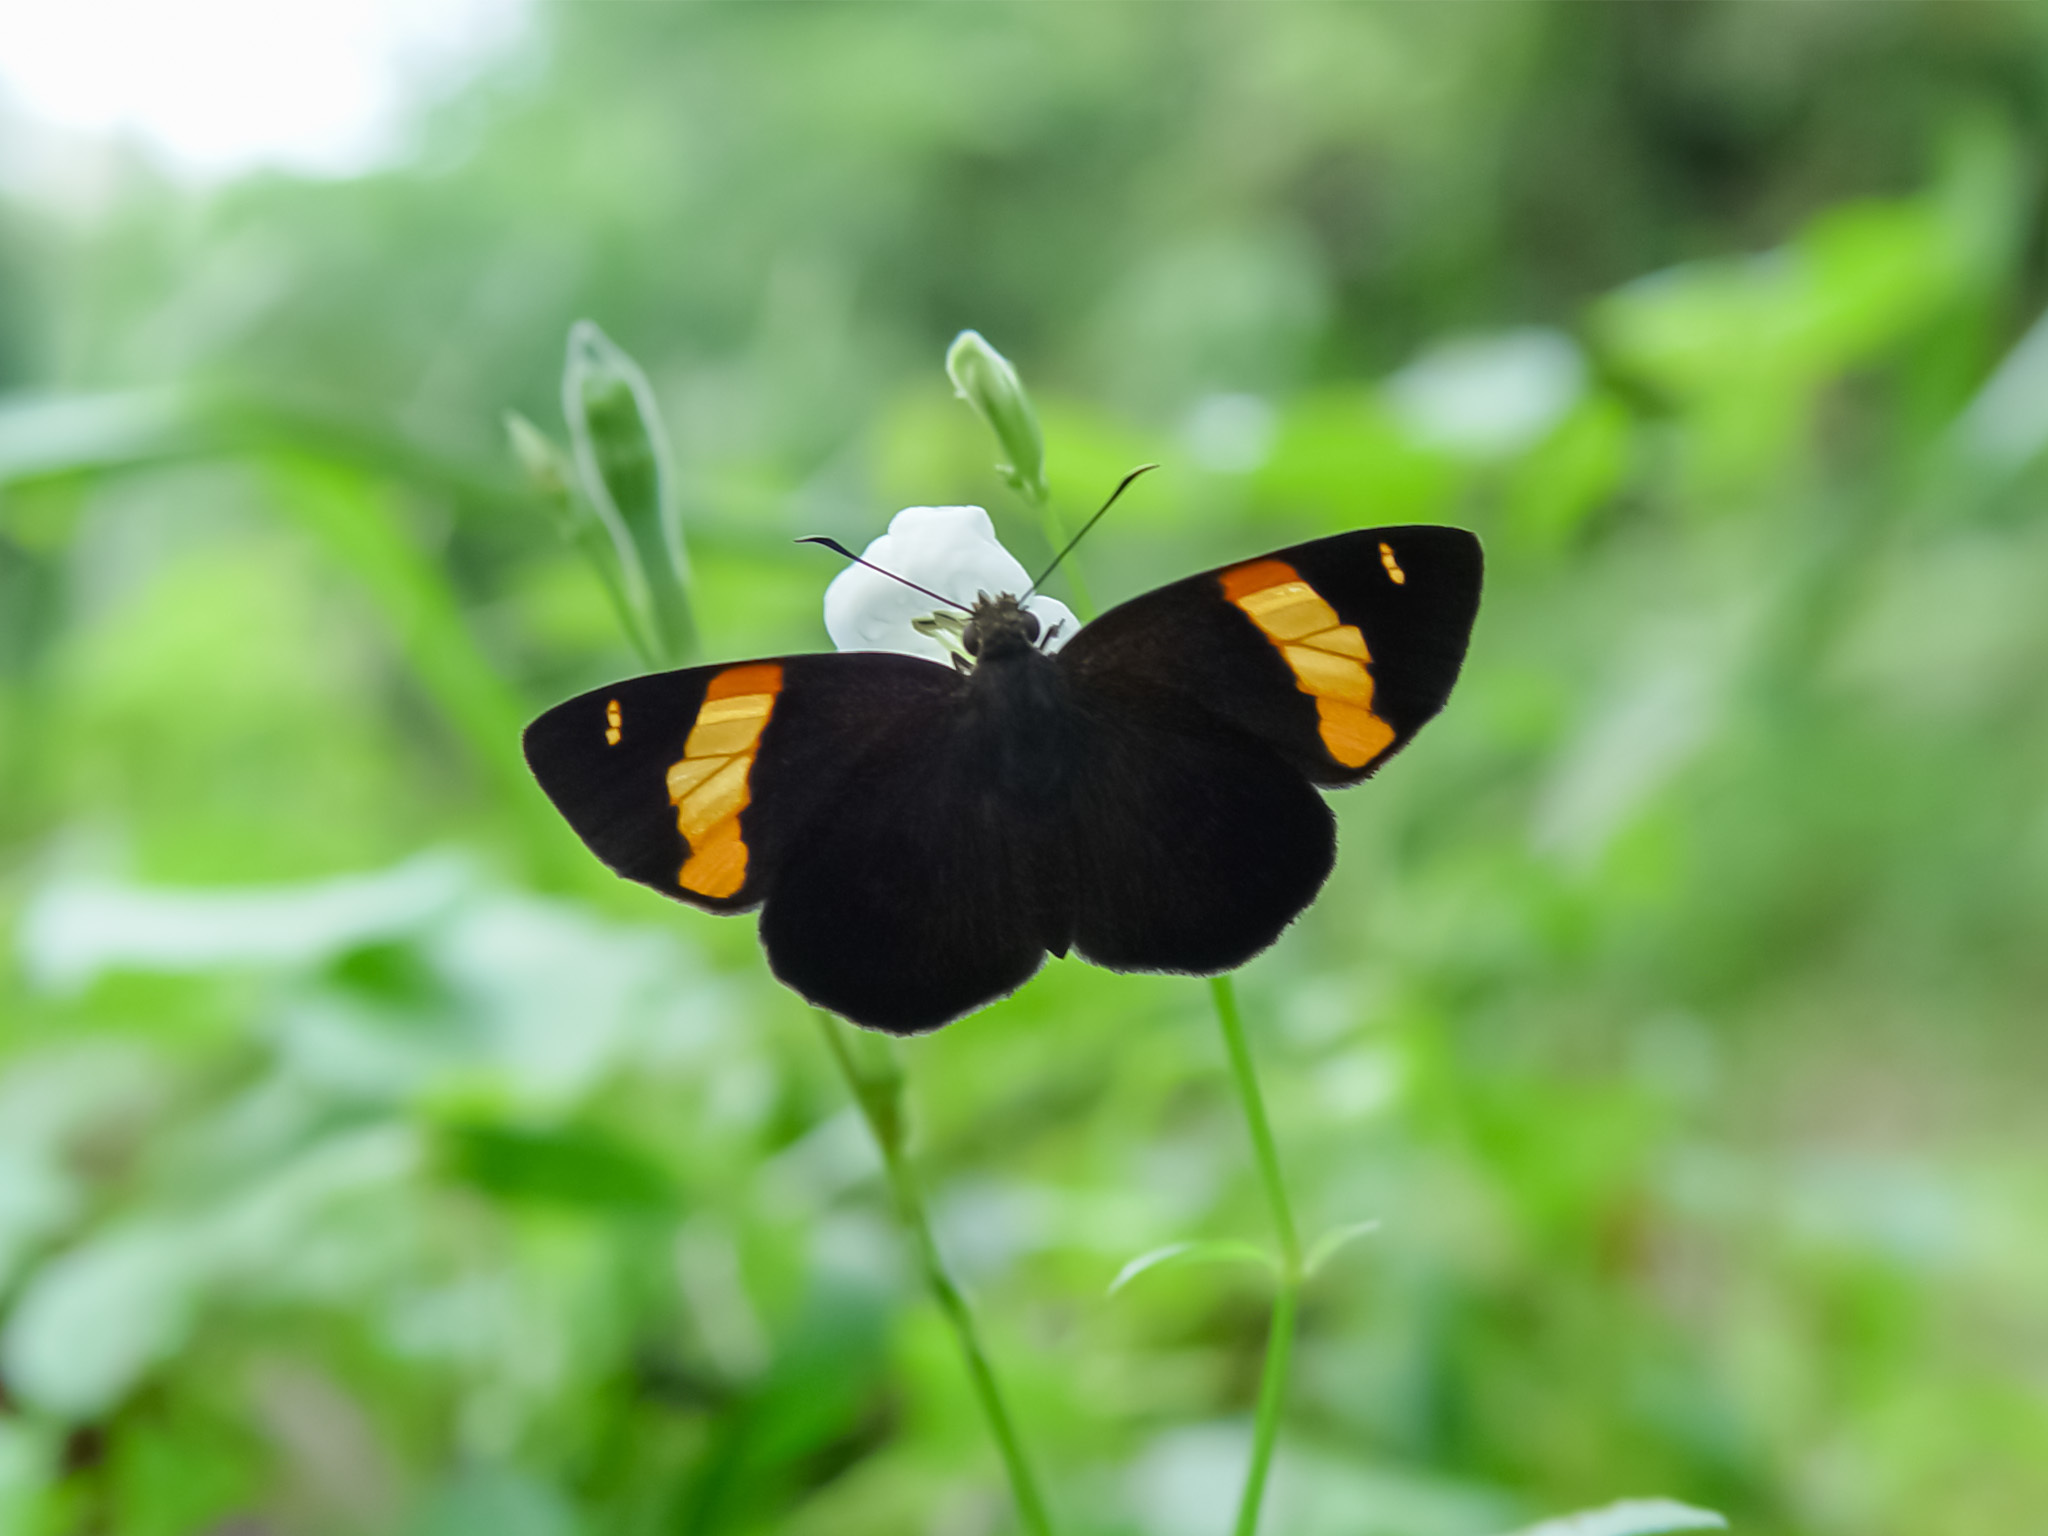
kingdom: Animalia
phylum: Arthropoda
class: Insecta
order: Lepidoptera
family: Hesperiidae
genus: Aurivittia
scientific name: Aurivittia
